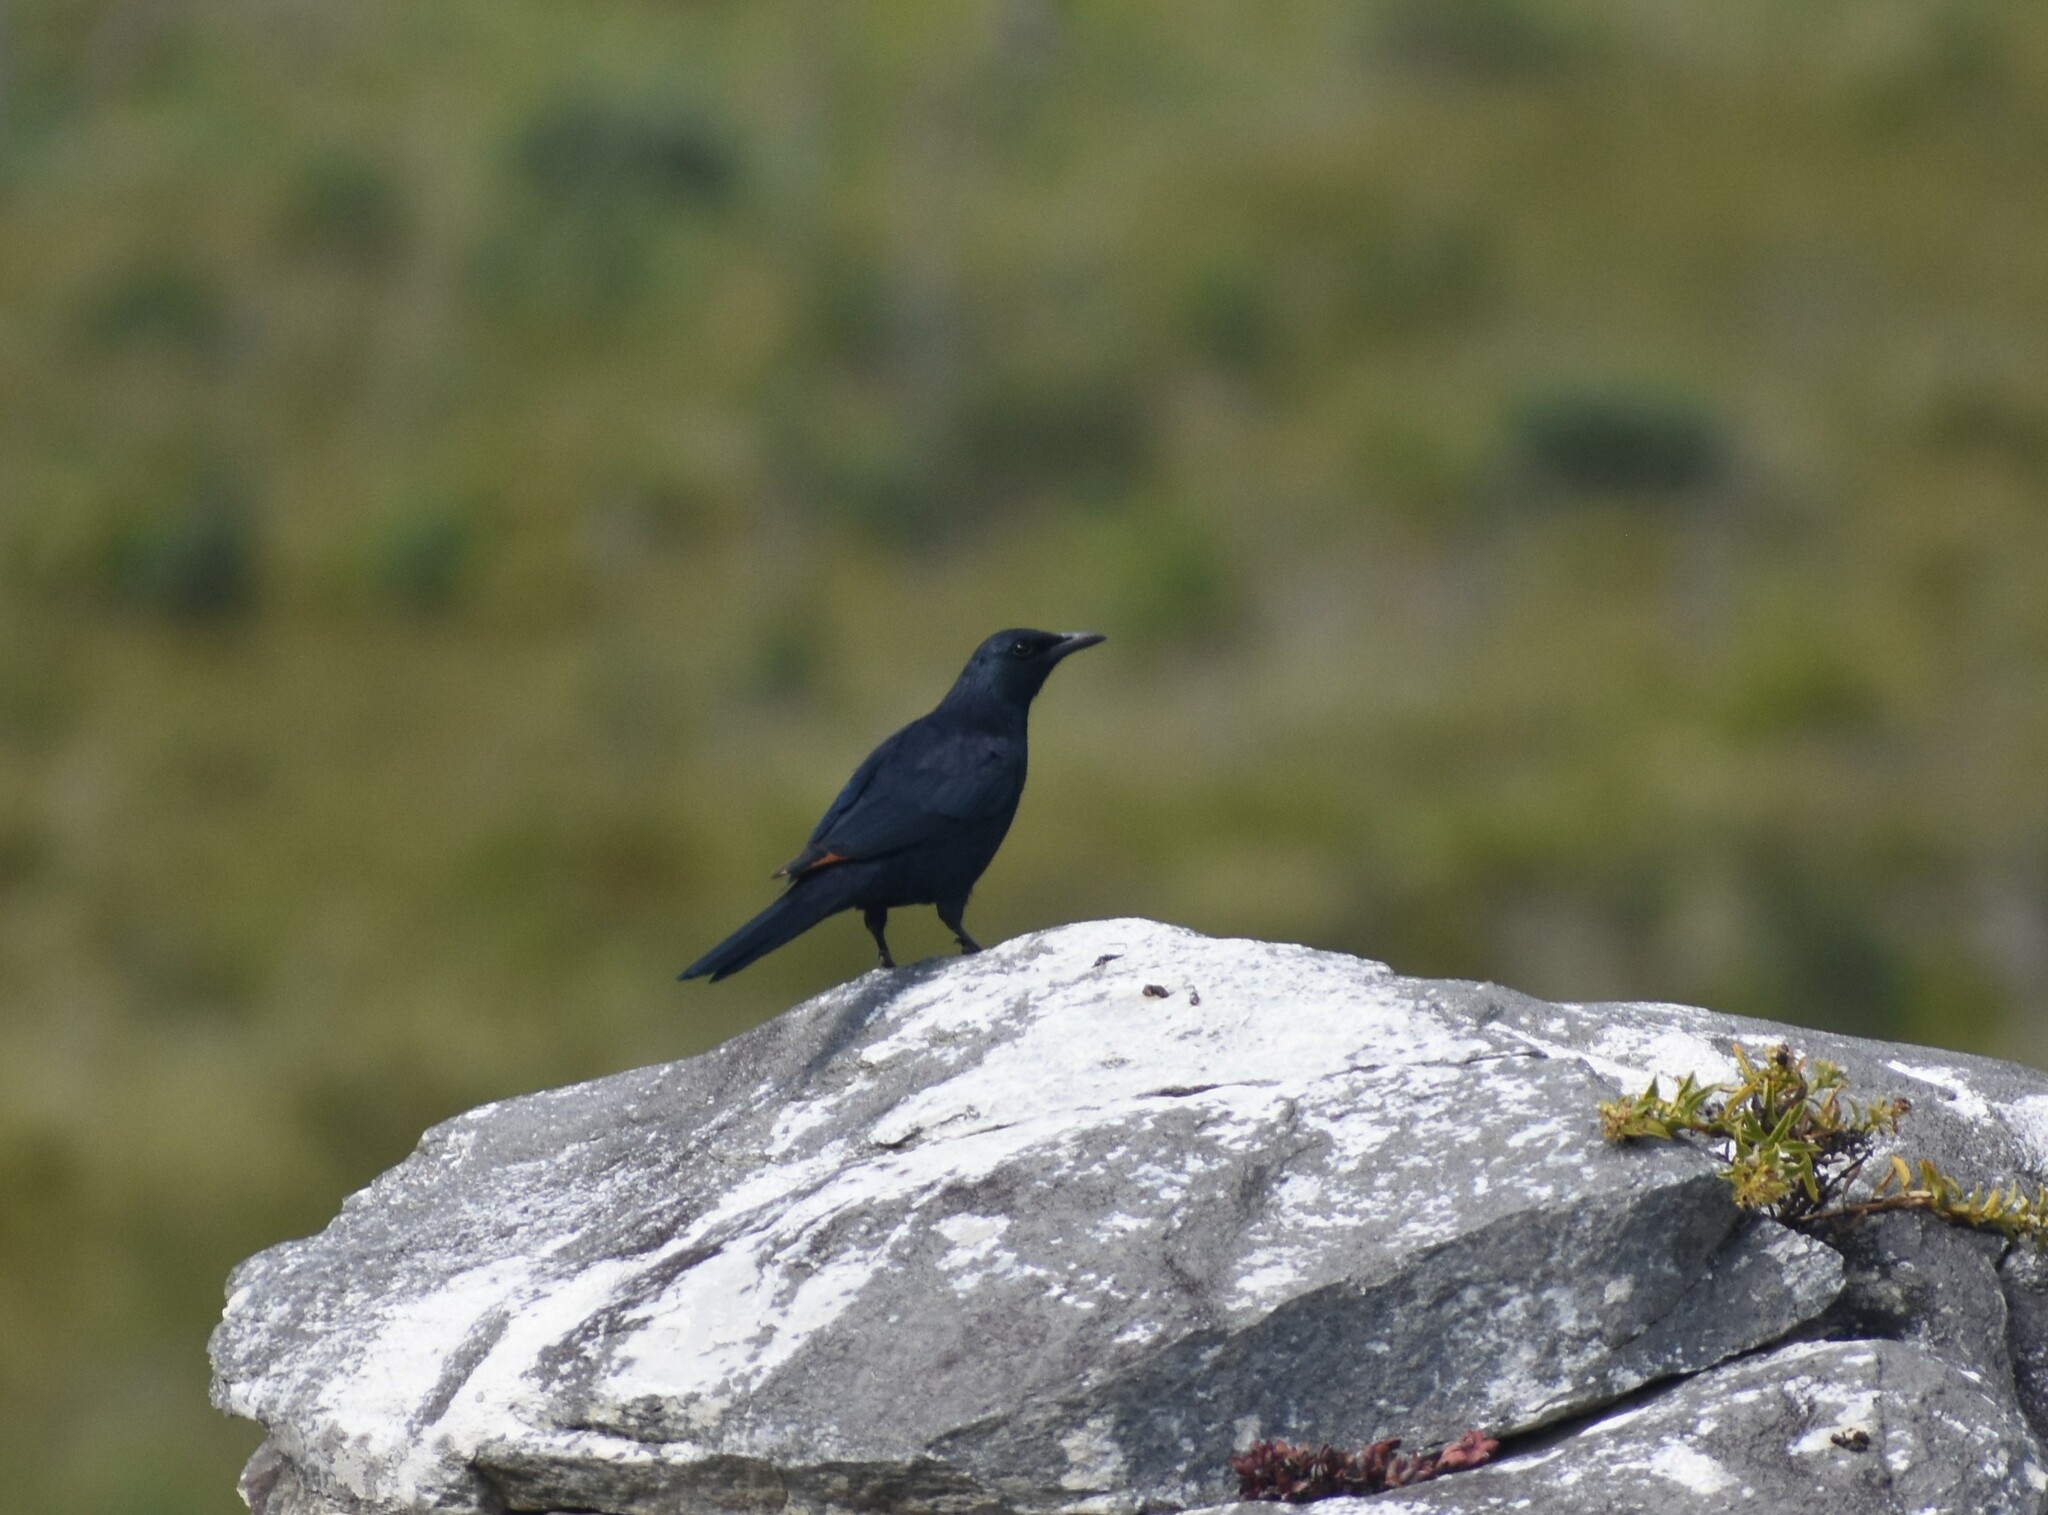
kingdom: Animalia
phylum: Chordata
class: Aves
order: Passeriformes
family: Sturnidae
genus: Onychognathus
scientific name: Onychognathus morio
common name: Red-winged starling
